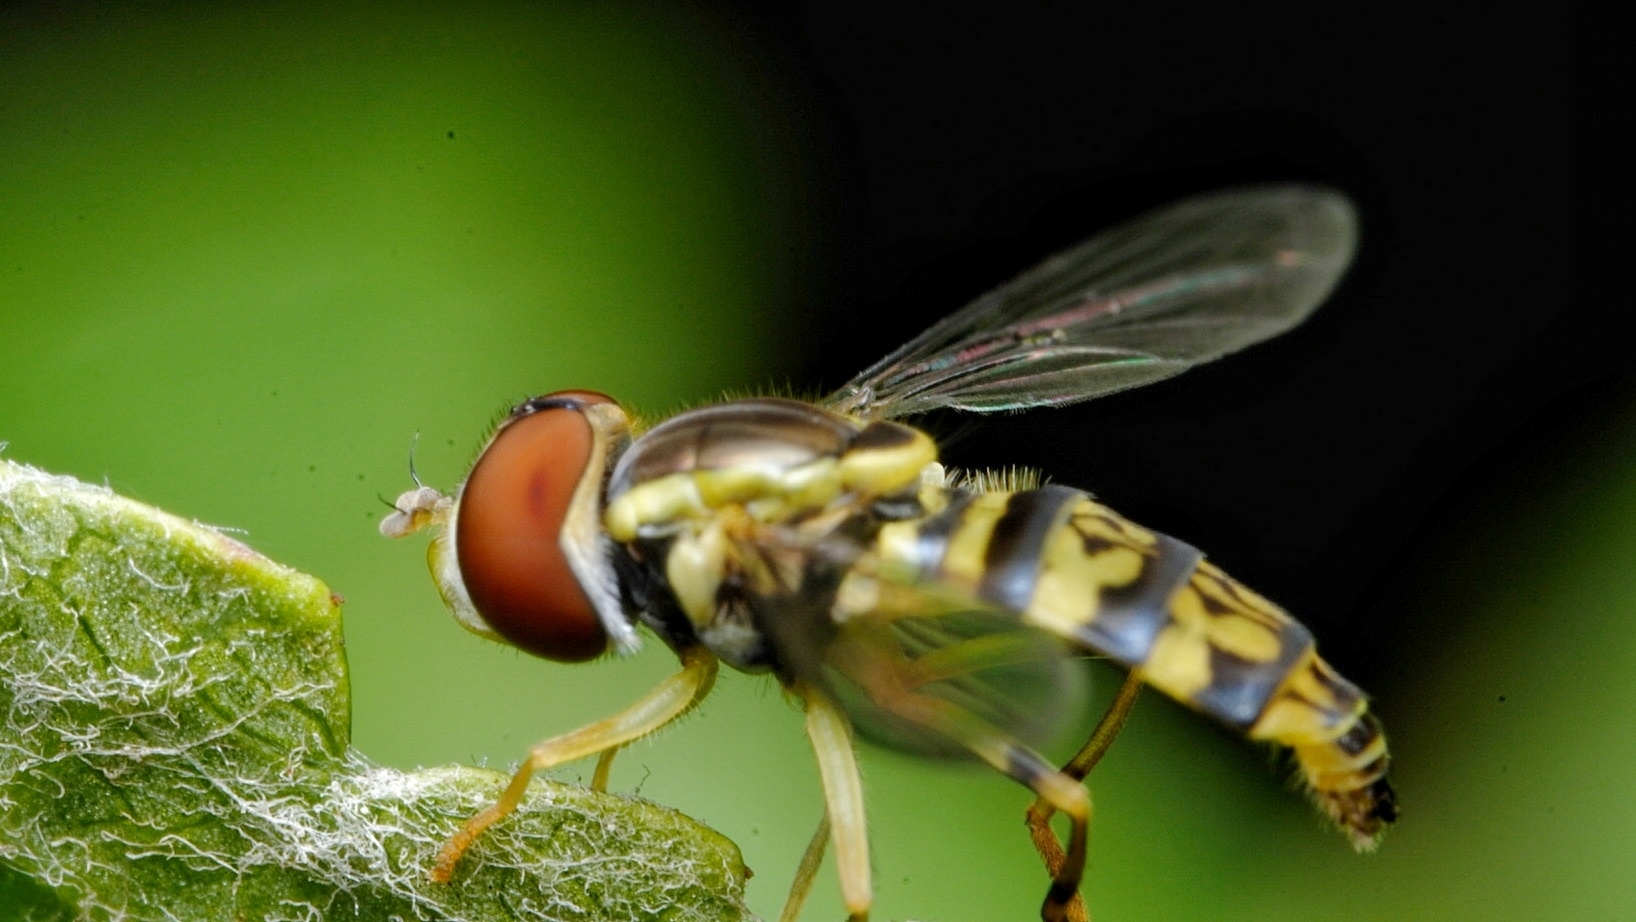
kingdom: Animalia
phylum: Arthropoda
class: Insecta
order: Diptera
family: Syrphidae
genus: Toxomerus
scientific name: Toxomerus geminatus
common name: Eastern calligrapher
